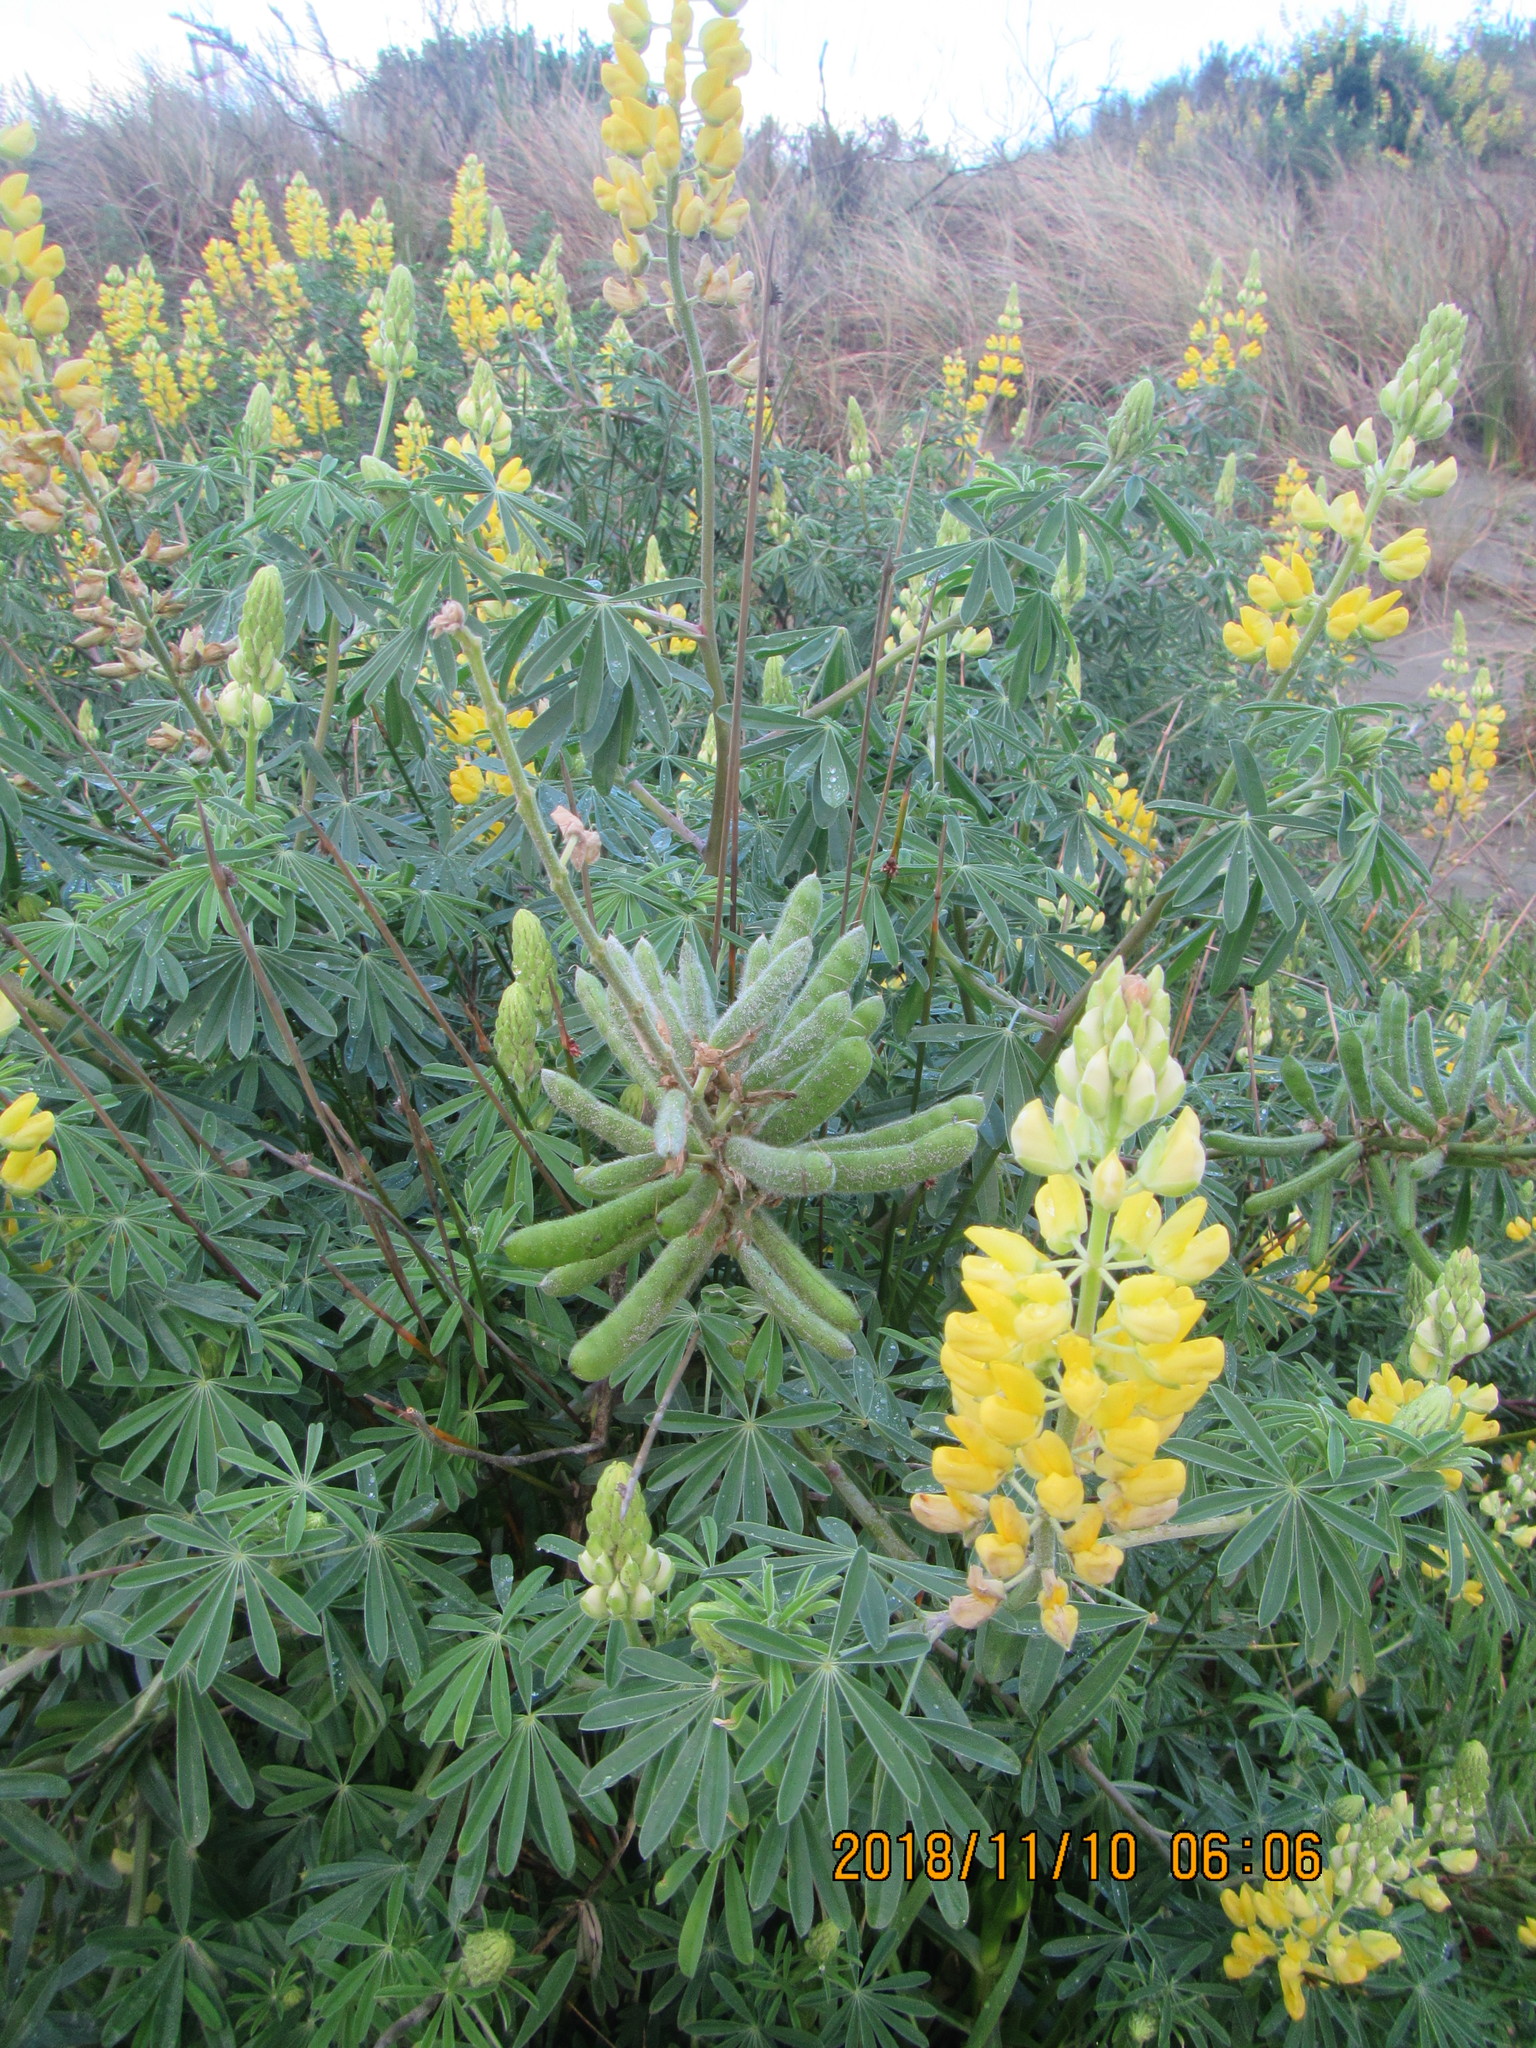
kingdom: Plantae
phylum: Tracheophyta
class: Magnoliopsida
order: Fabales
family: Fabaceae
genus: Lupinus
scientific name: Lupinus arboreus
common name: Yellow bush lupine
